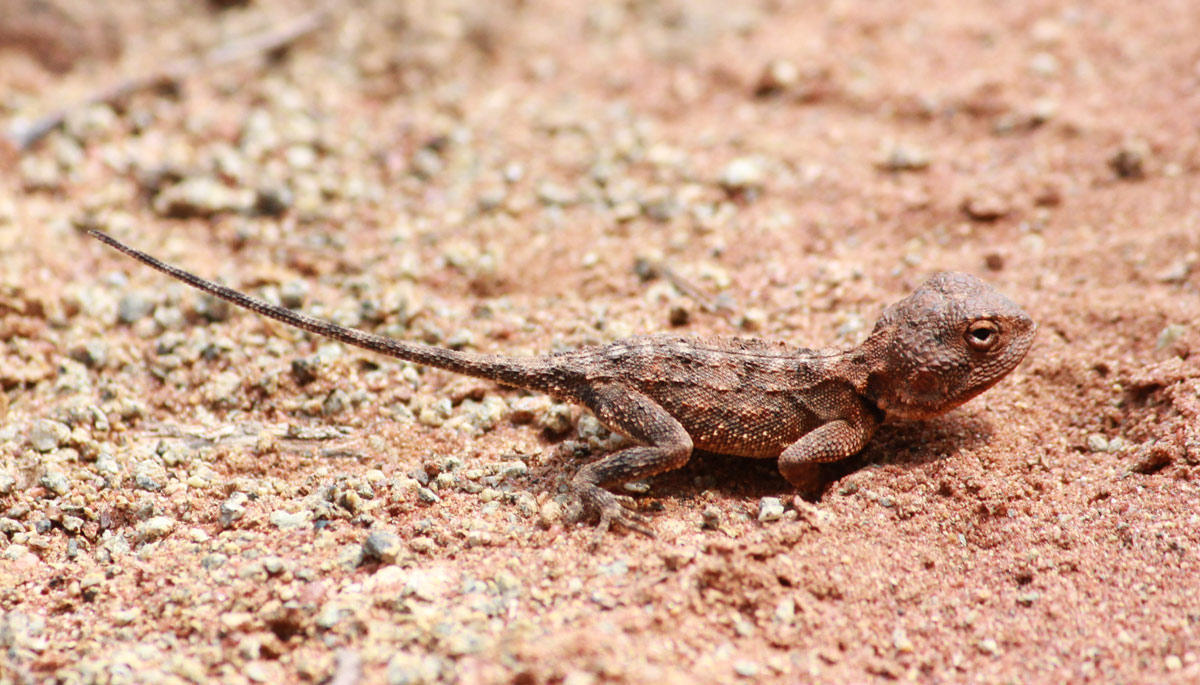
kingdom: Animalia
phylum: Chordata
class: Squamata
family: Agamidae
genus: Agama
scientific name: Agama armata
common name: Northern ground agama
